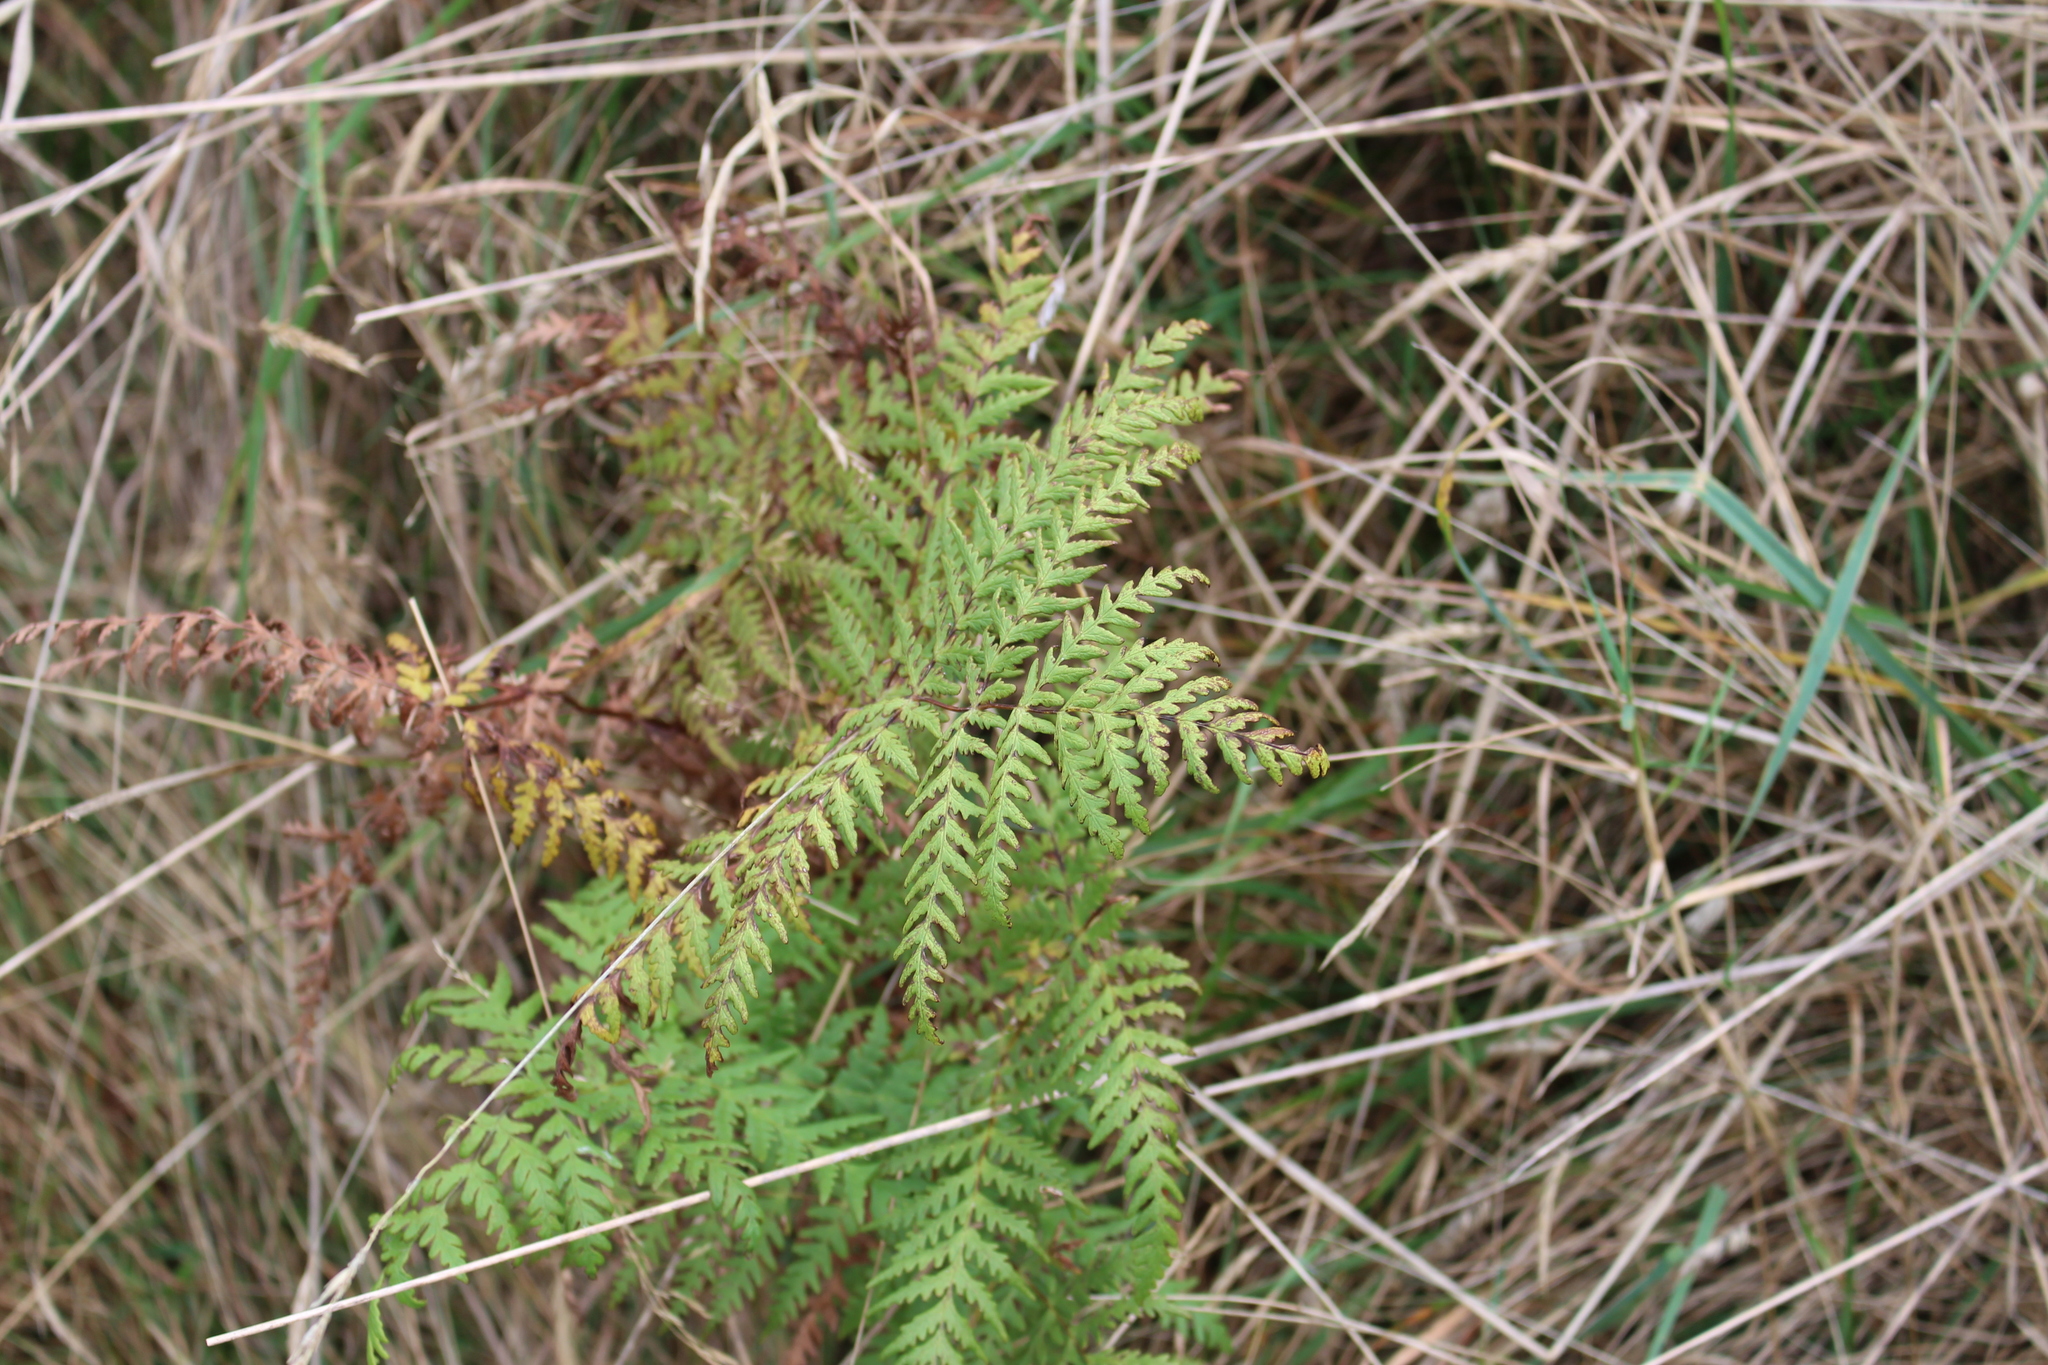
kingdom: Plantae
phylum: Tracheophyta
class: Polypodiopsida
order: Polypodiales
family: Dennstaedtiaceae
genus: Histiopteris
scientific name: Histiopteris incisa
